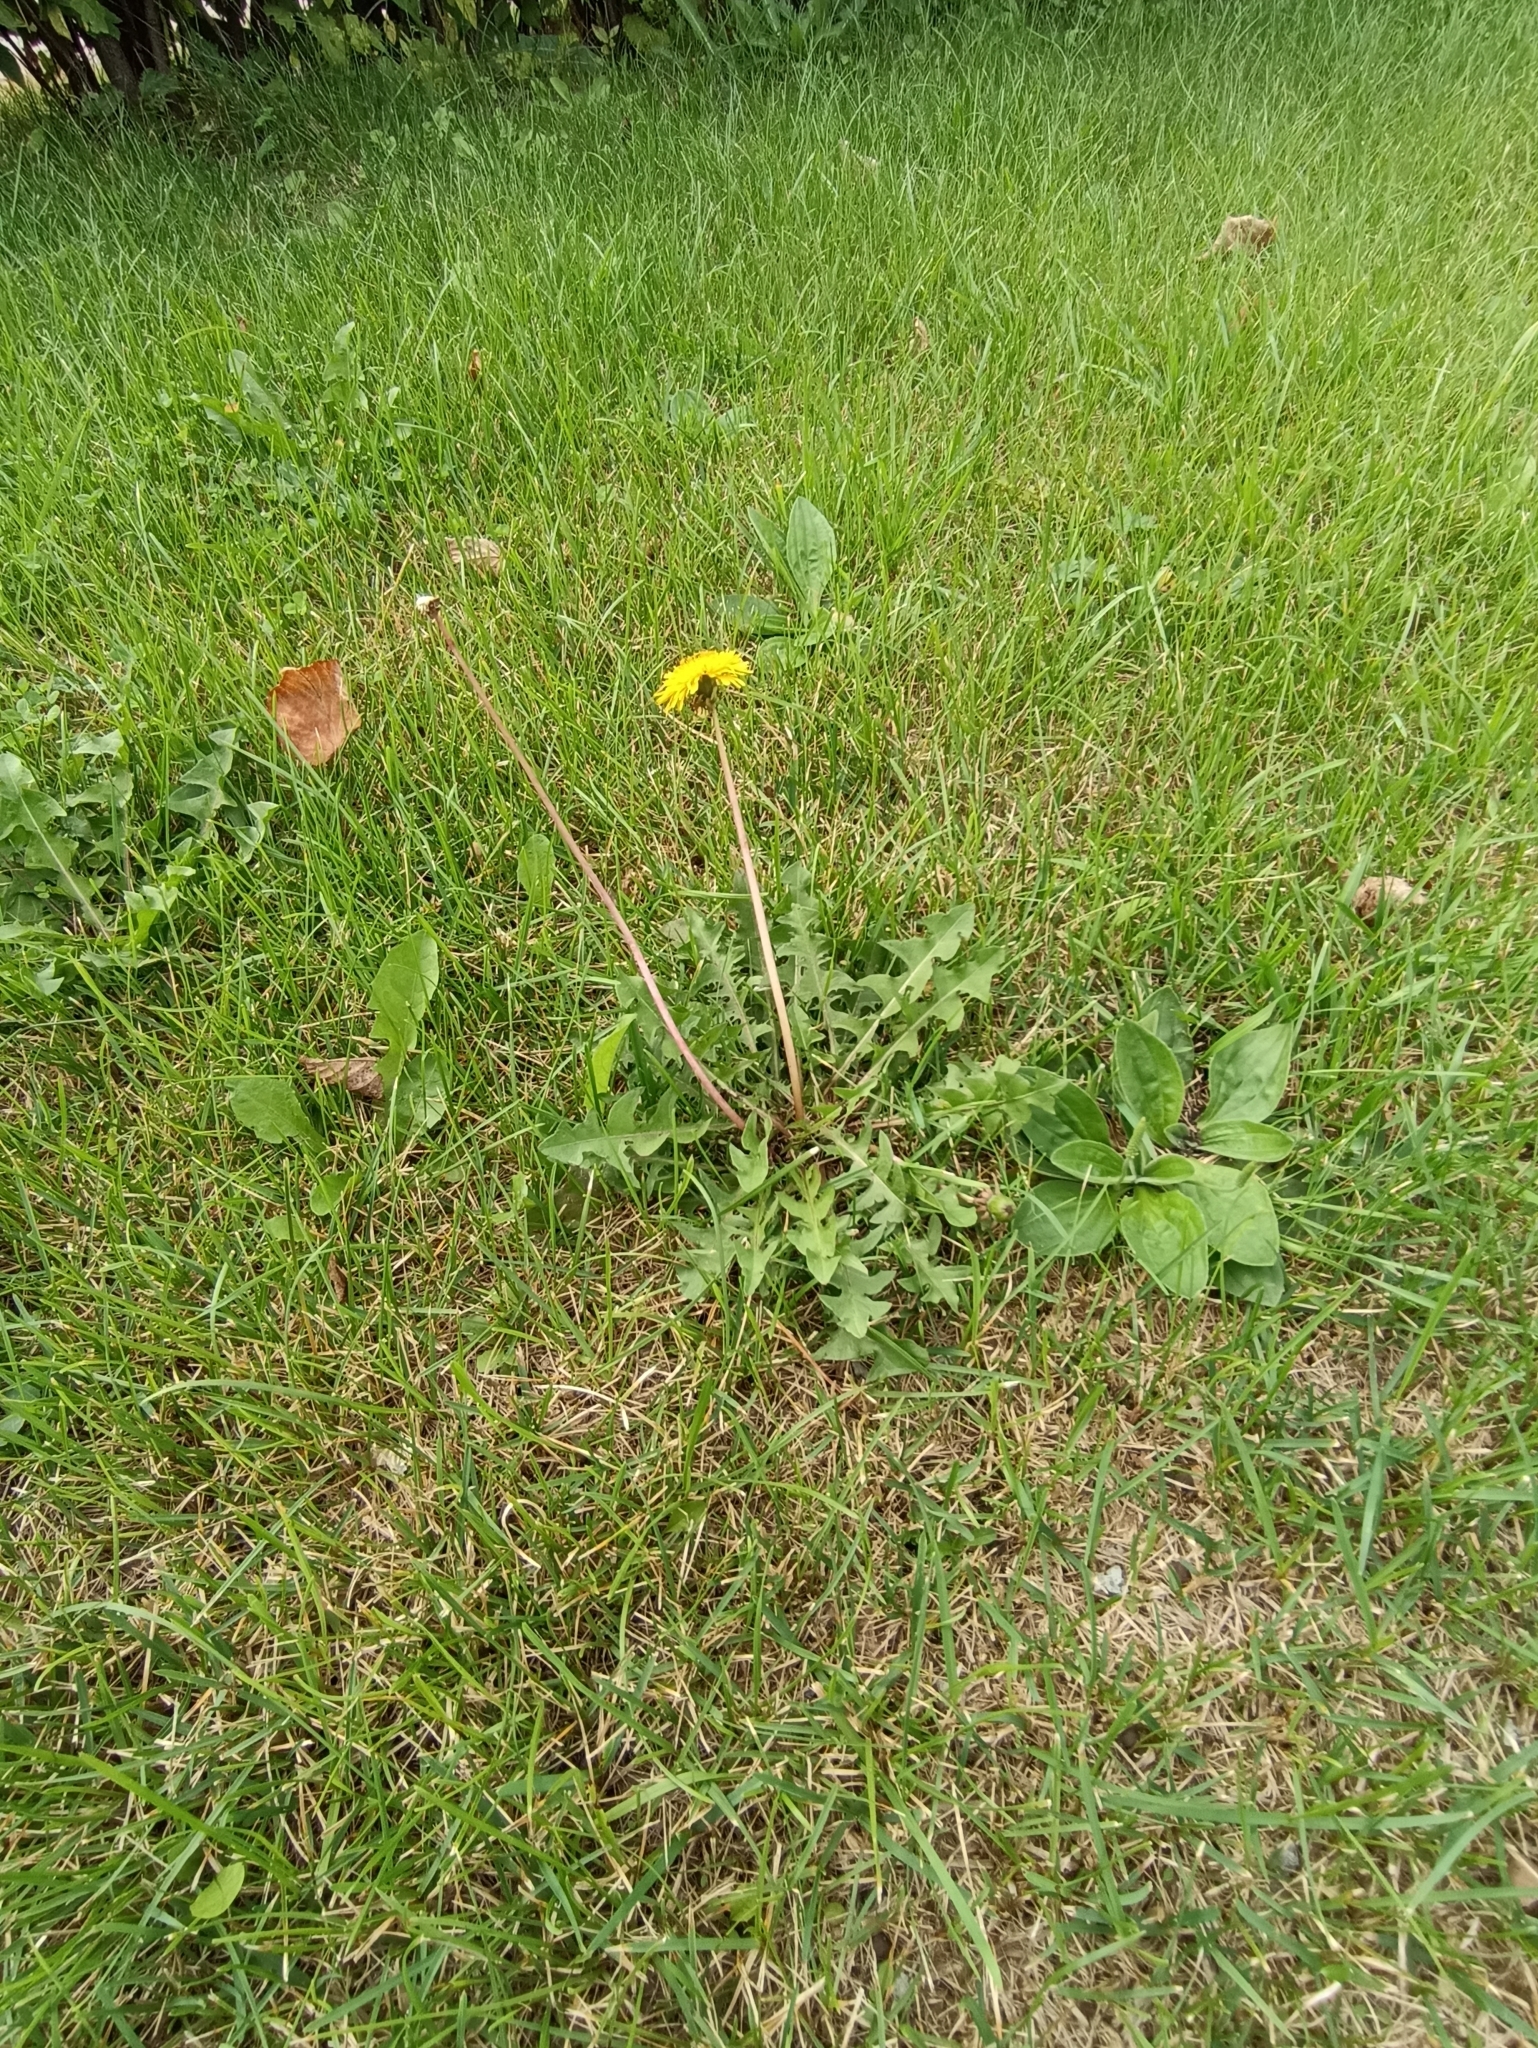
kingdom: Plantae
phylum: Tracheophyta
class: Magnoliopsida
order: Asterales
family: Asteraceae
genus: Taraxacum
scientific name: Taraxacum officinale
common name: Common dandelion
